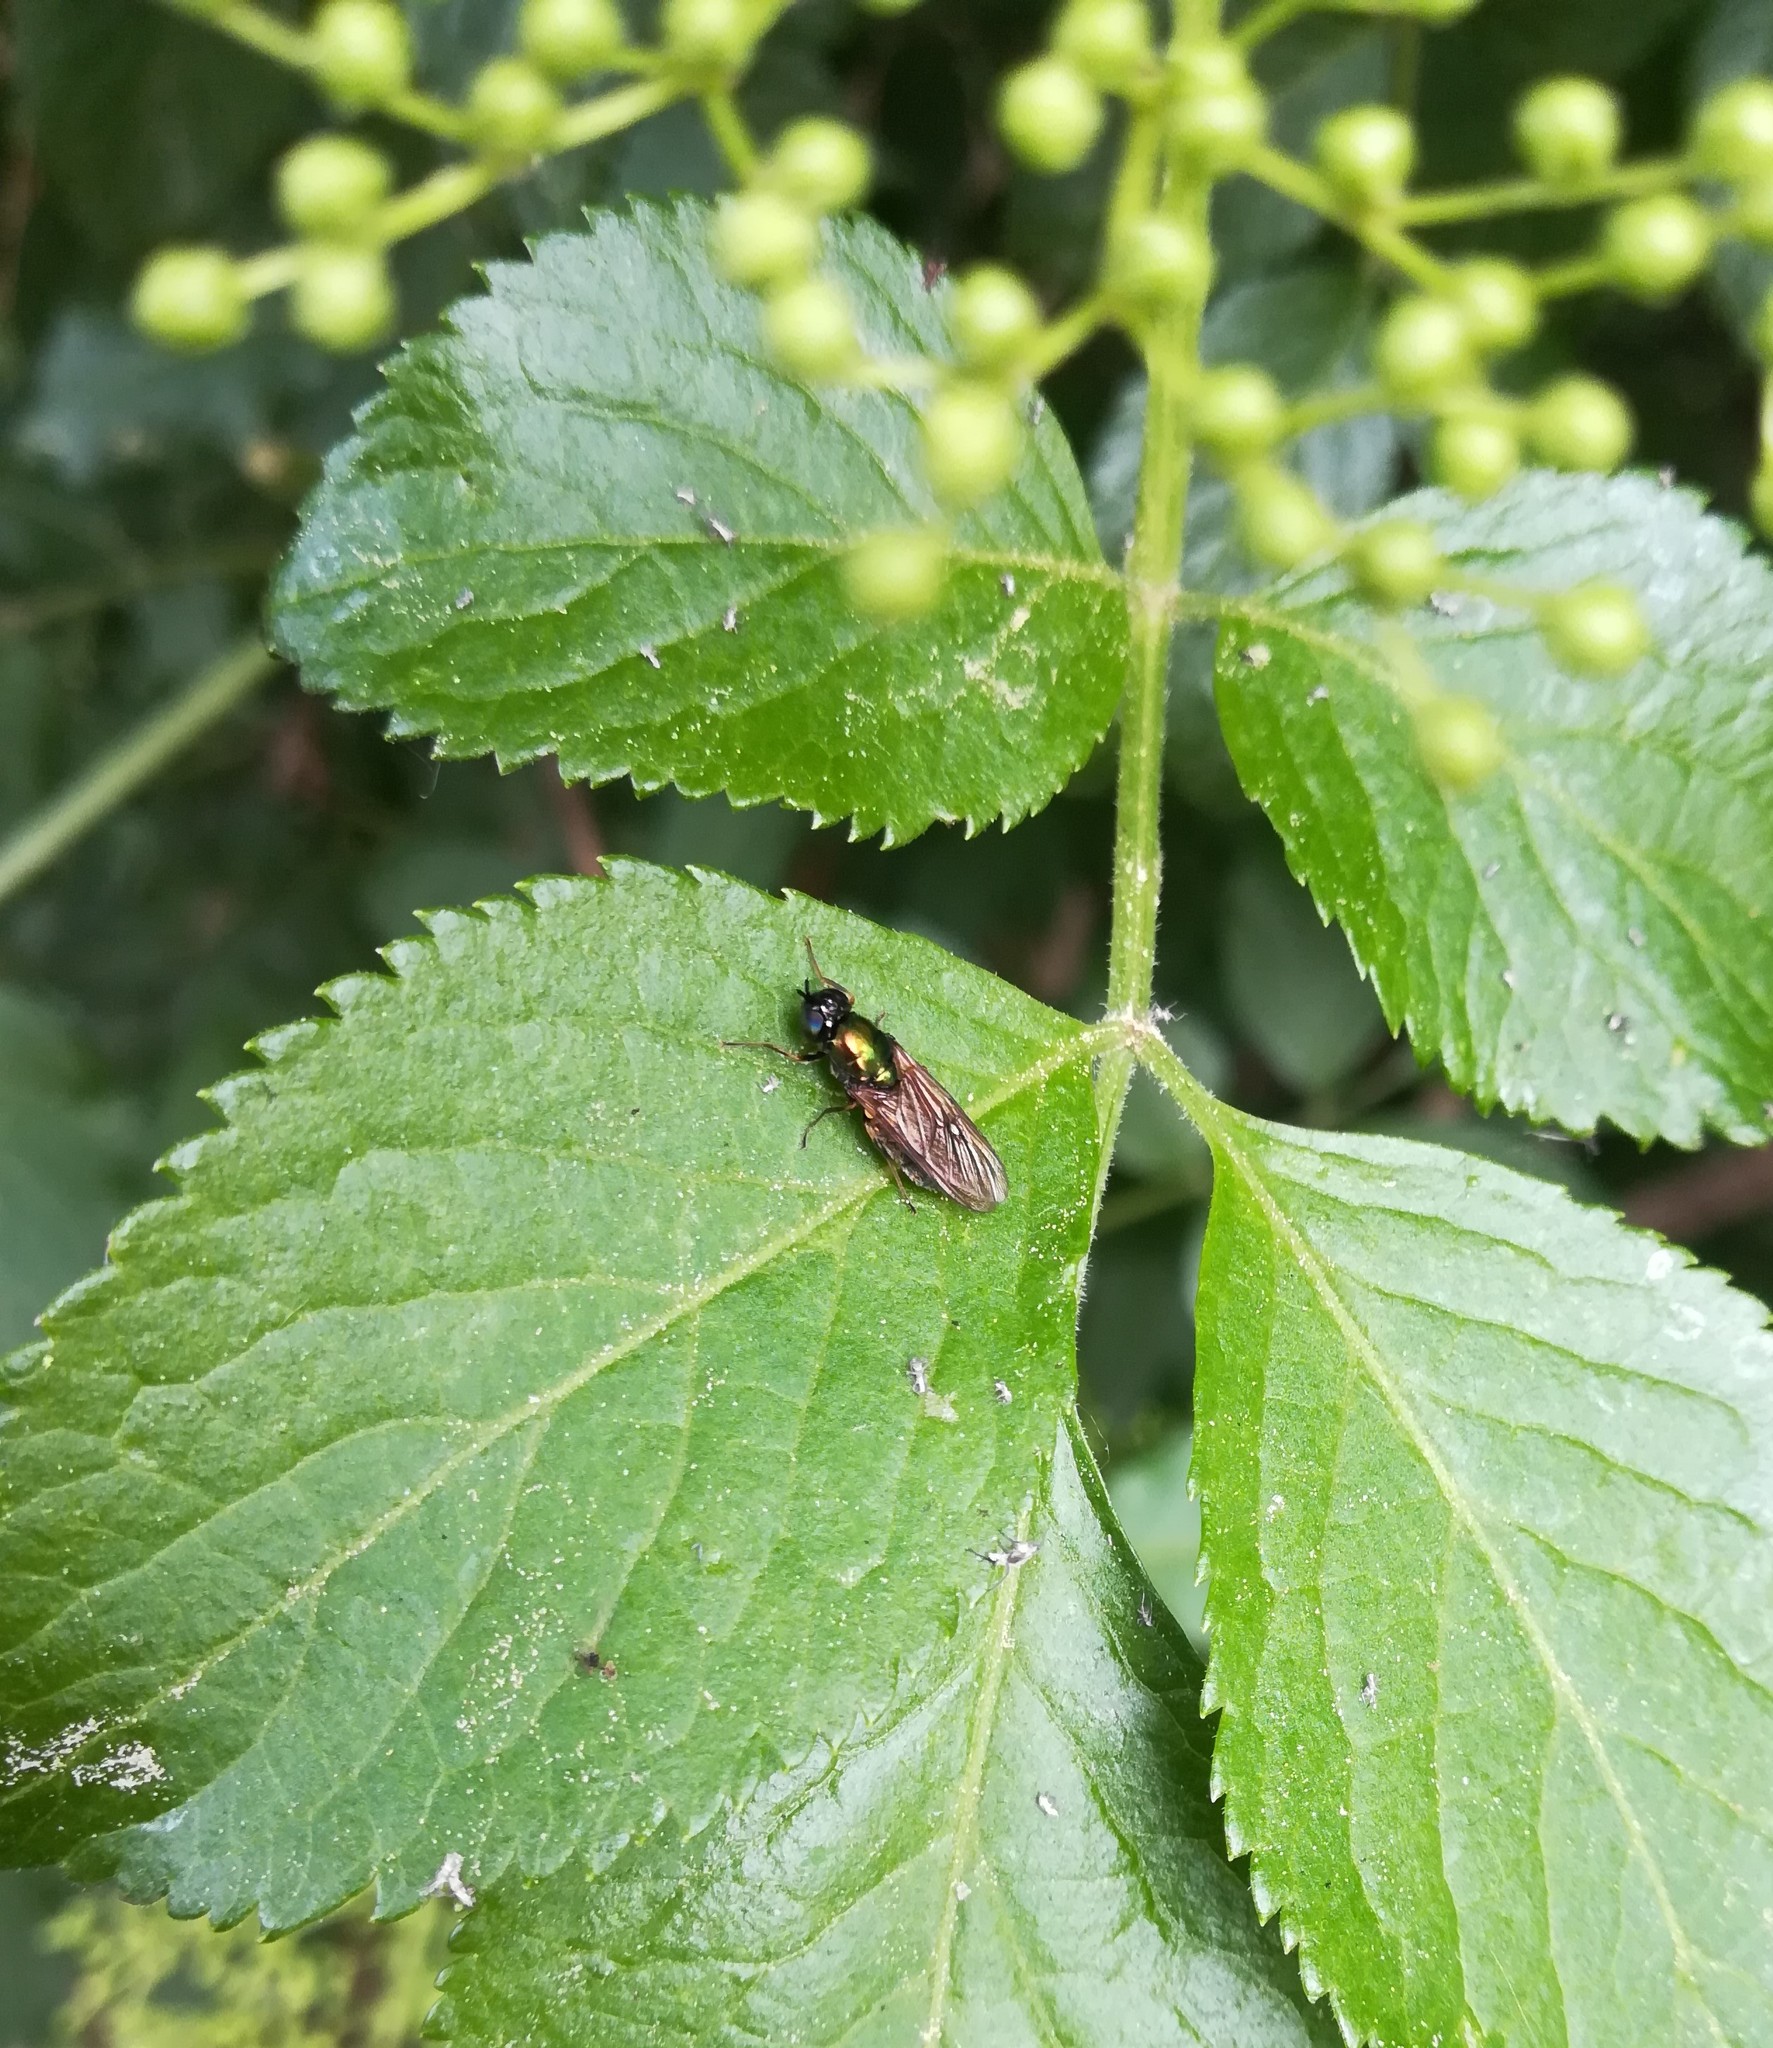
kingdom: Animalia
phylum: Arthropoda
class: Insecta
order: Diptera
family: Stratiomyidae
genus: Chloromyia
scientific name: Chloromyia formosa
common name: Soldier fly
